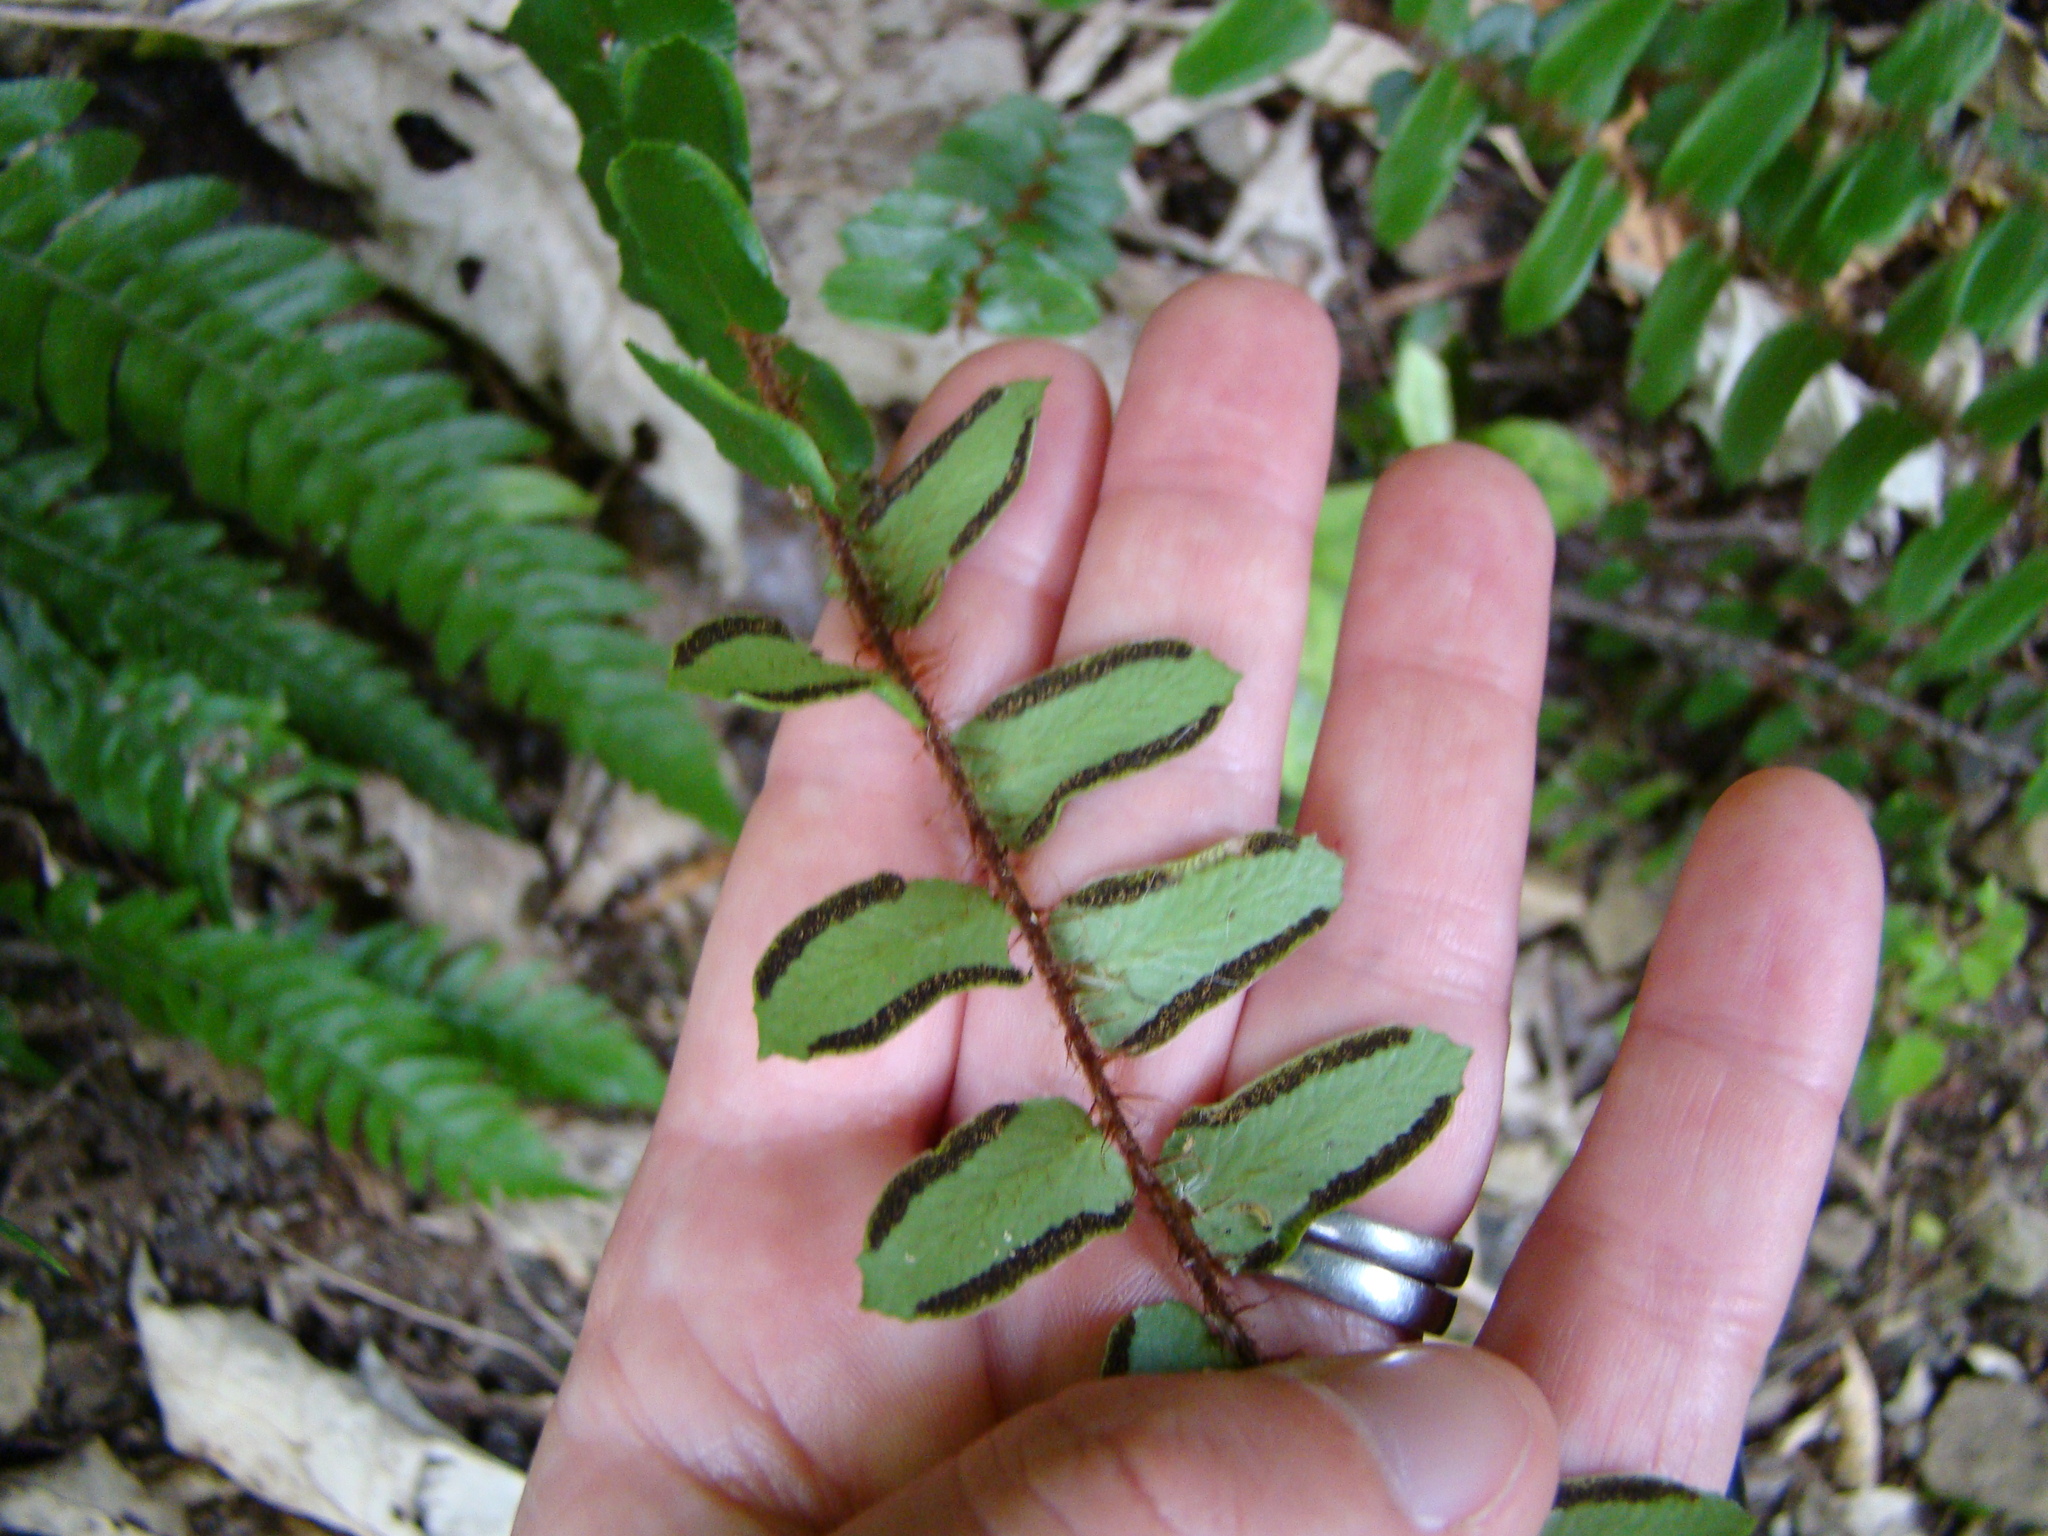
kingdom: Plantae
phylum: Tracheophyta
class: Polypodiopsida
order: Polypodiales
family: Pteridaceae
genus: Pellaea
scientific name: Pellaea rotundifolia
